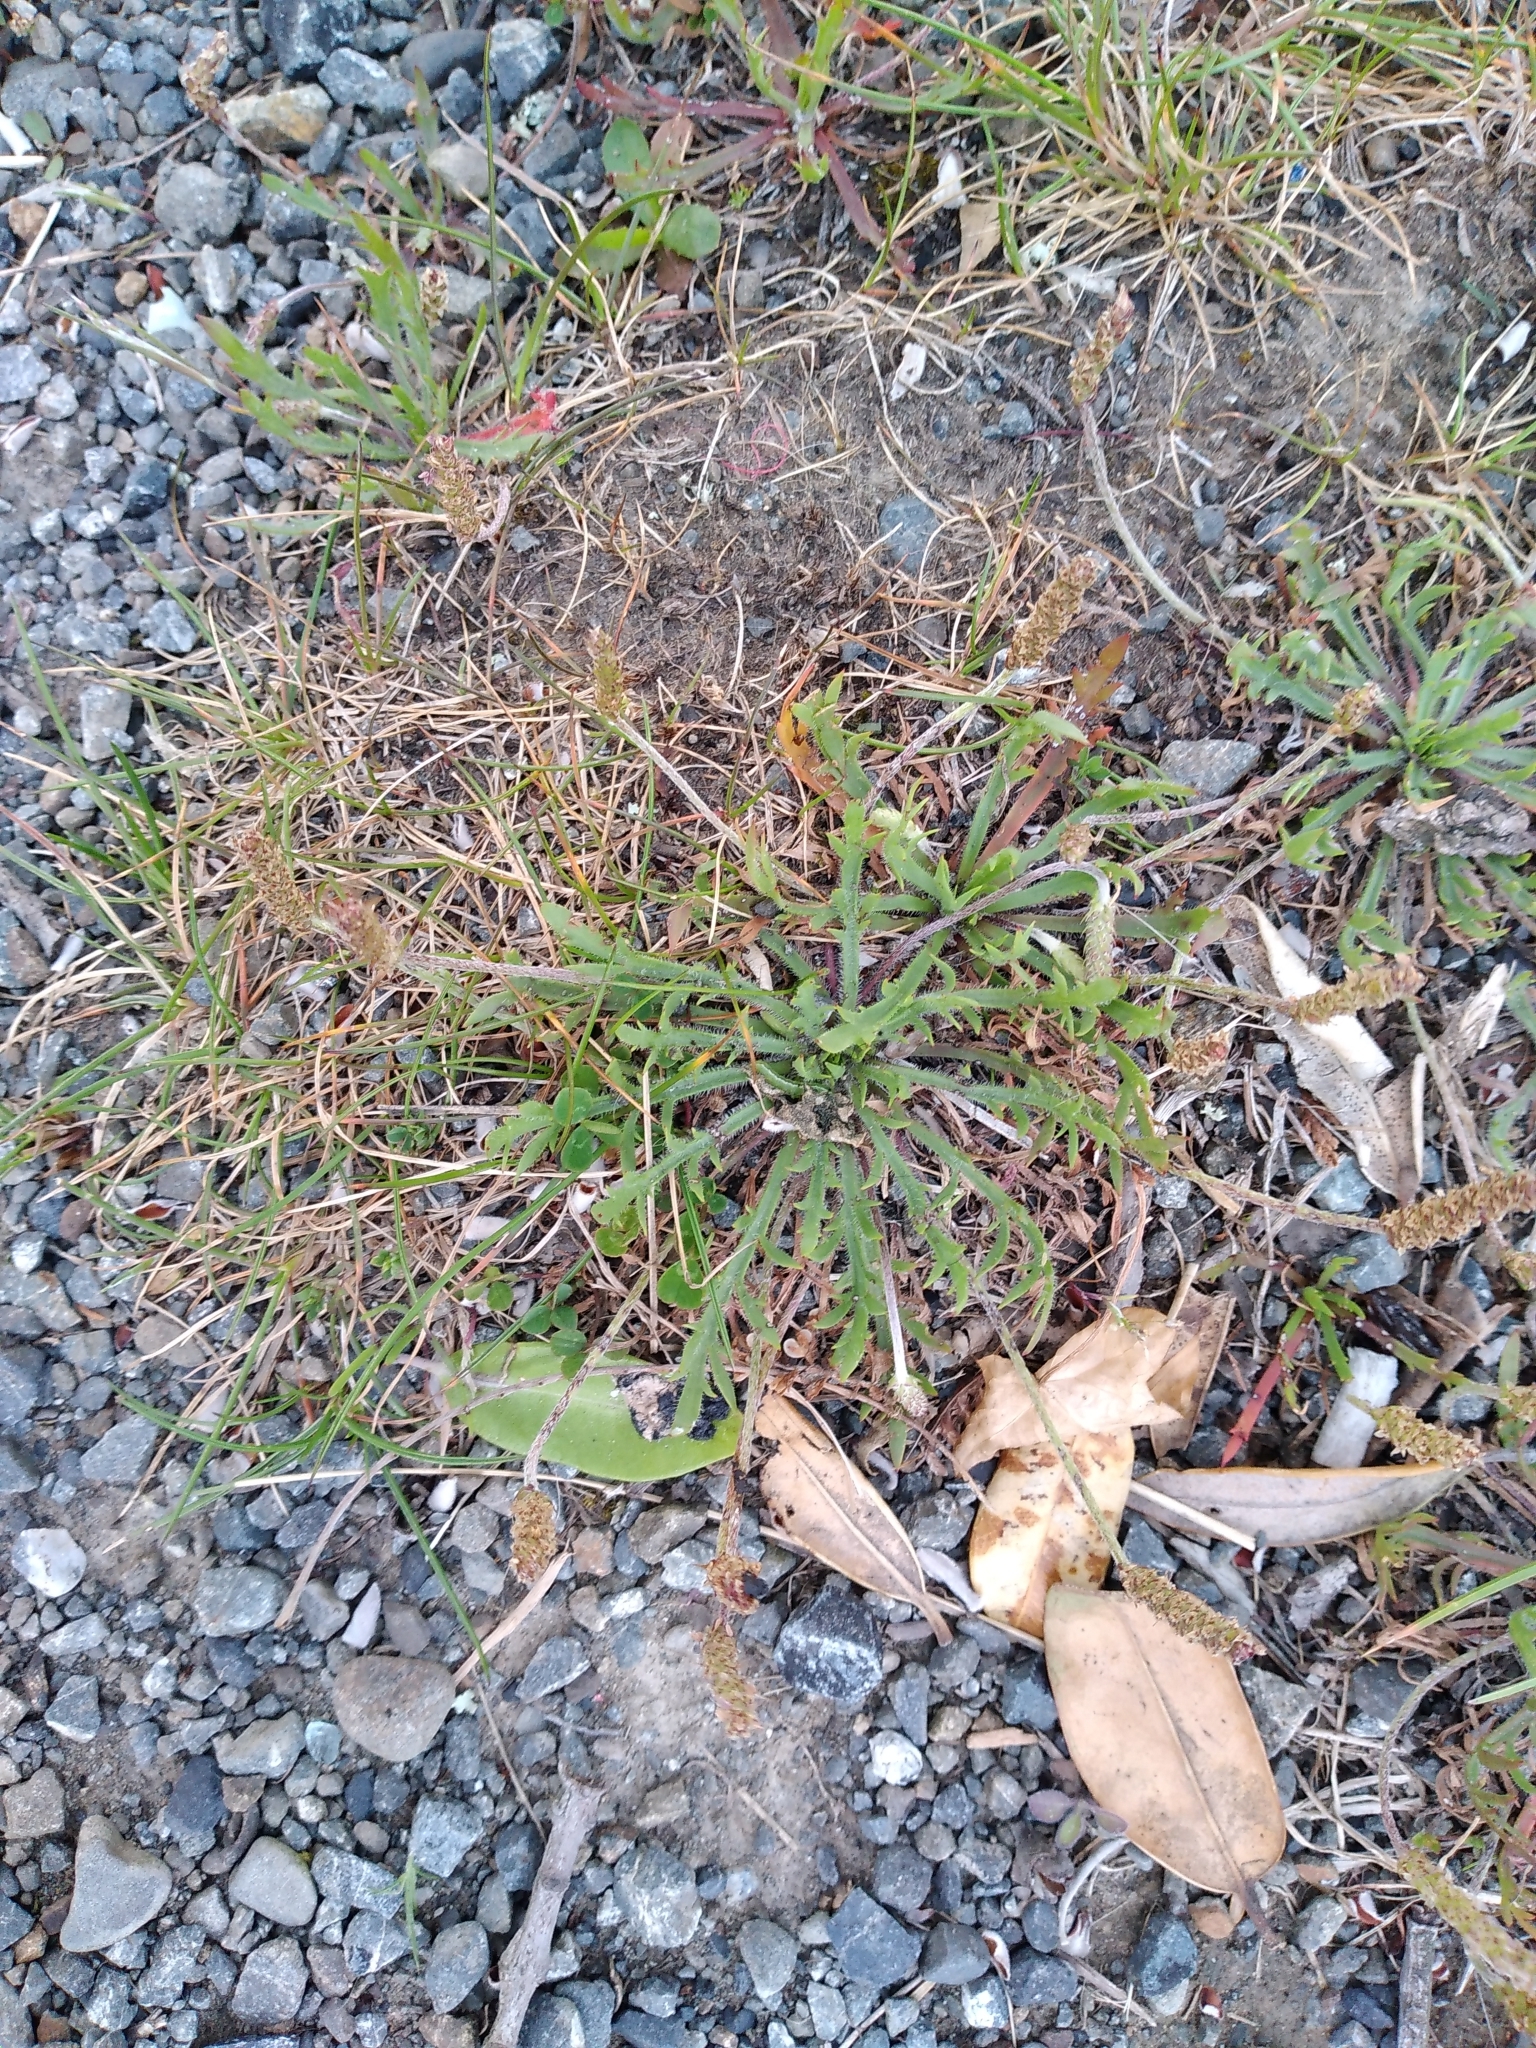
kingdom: Plantae
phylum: Tracheophyta
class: Magnoliopsida
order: Lamiales
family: Plantaginaceae
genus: Plantago
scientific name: Plantago coronopus
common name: Buck's-horn plantain
